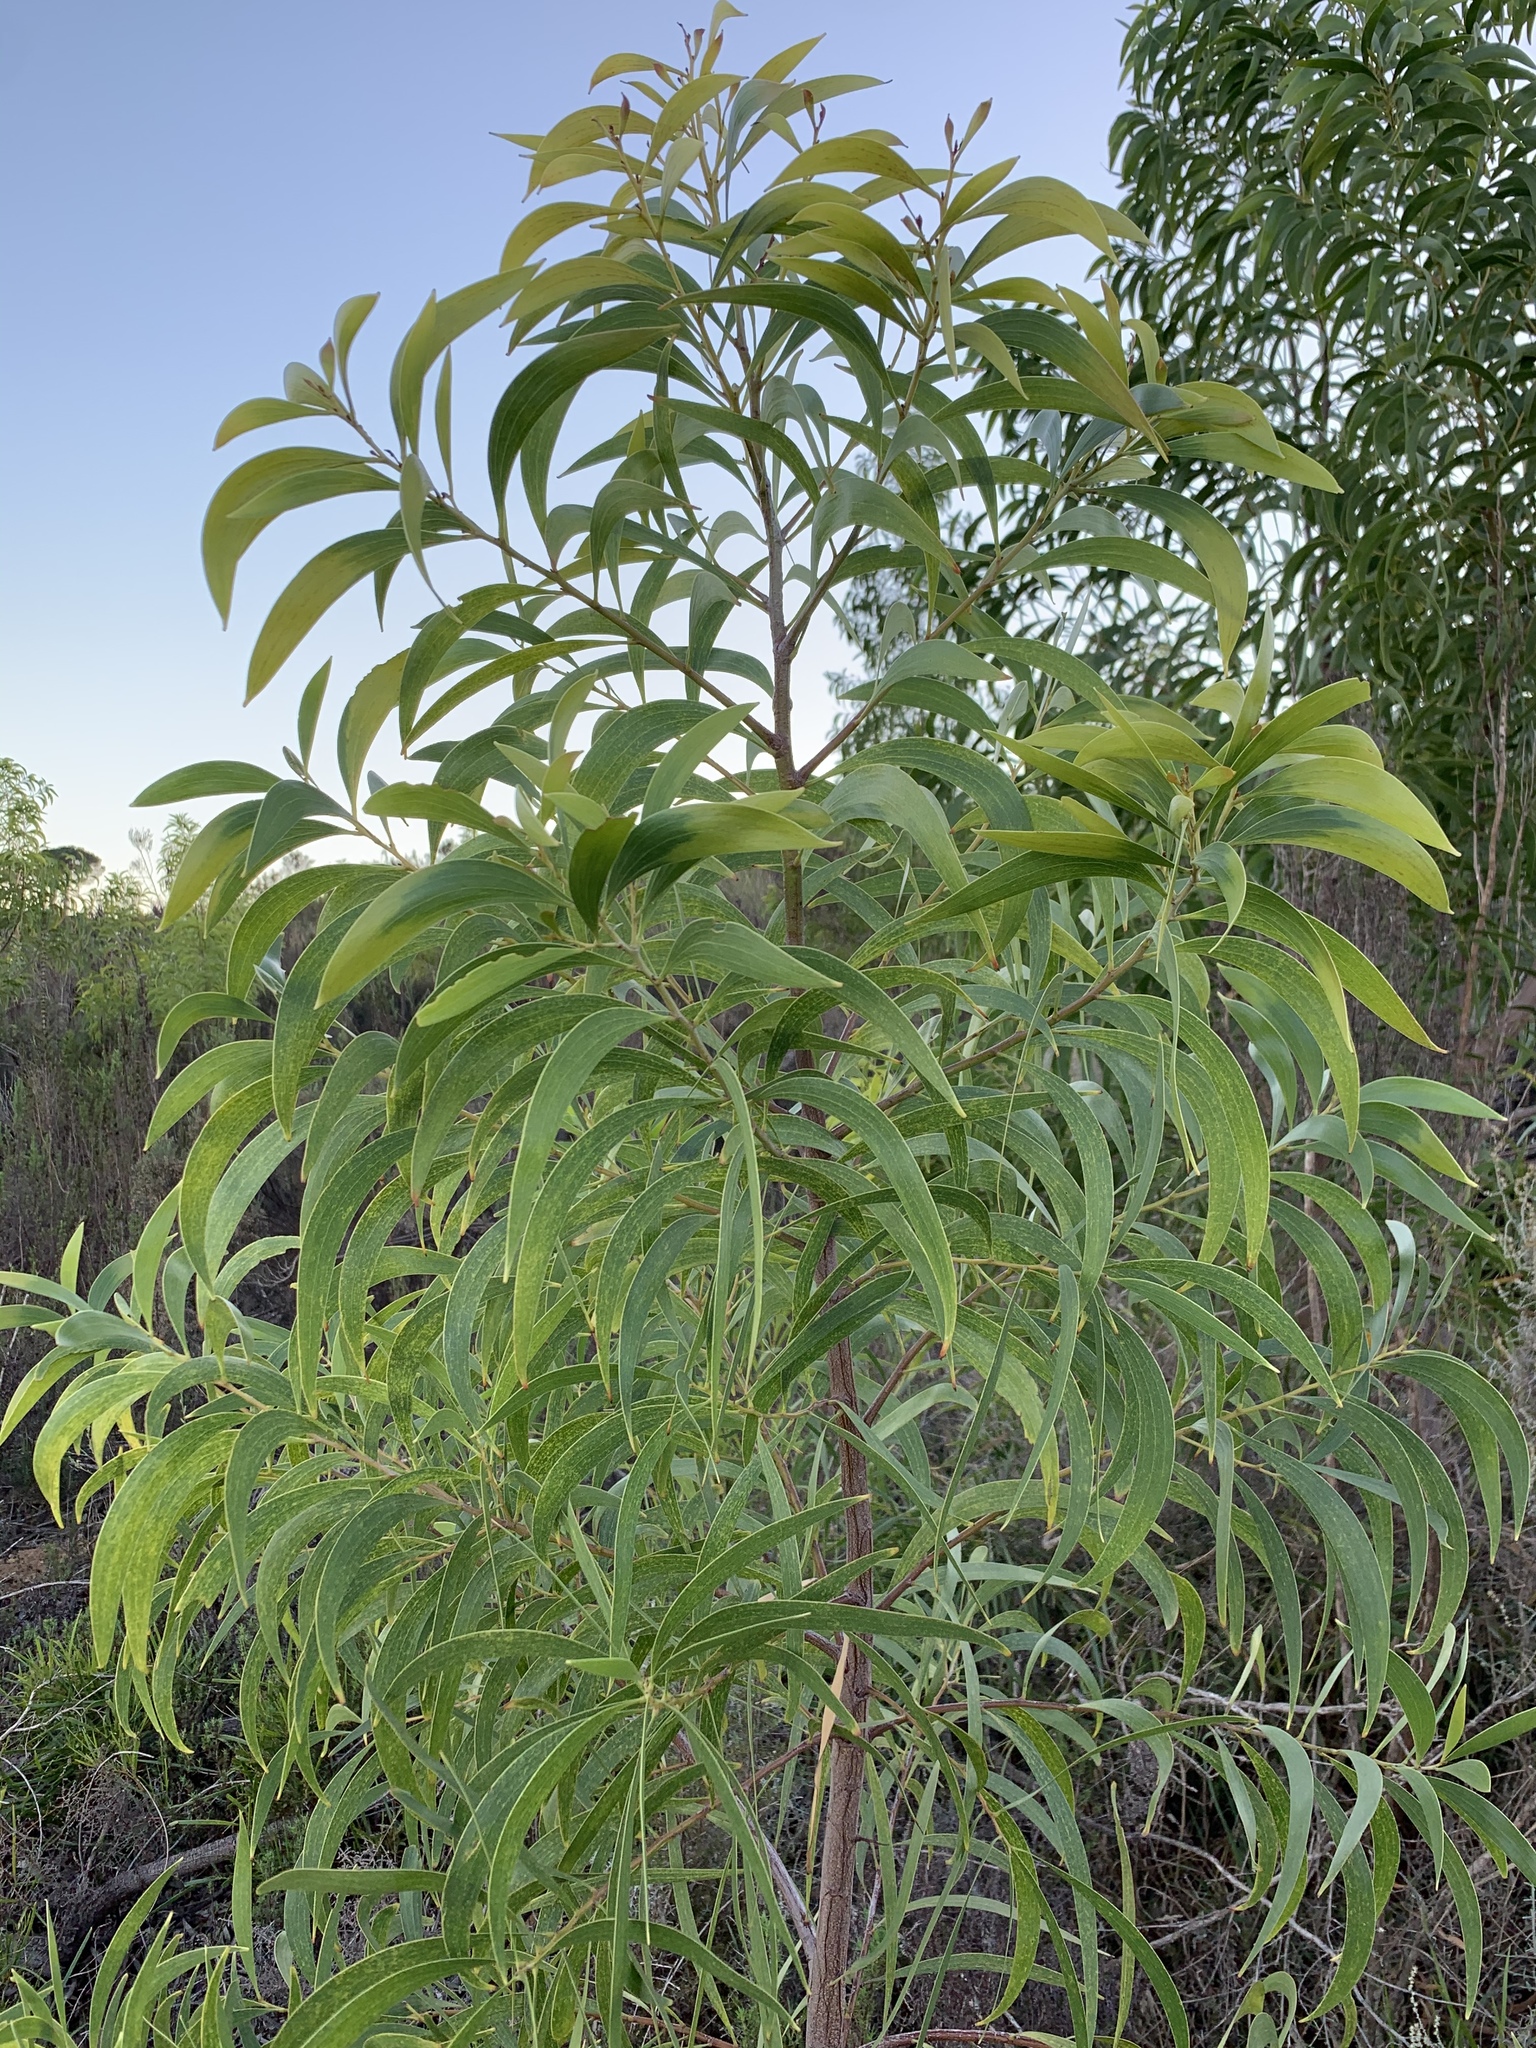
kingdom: Plantae
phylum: Tracheophyta
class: Magnoliopsida
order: Fabales
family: Fabaceae
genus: Acacia
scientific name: Acacia implexa
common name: Black wattle
